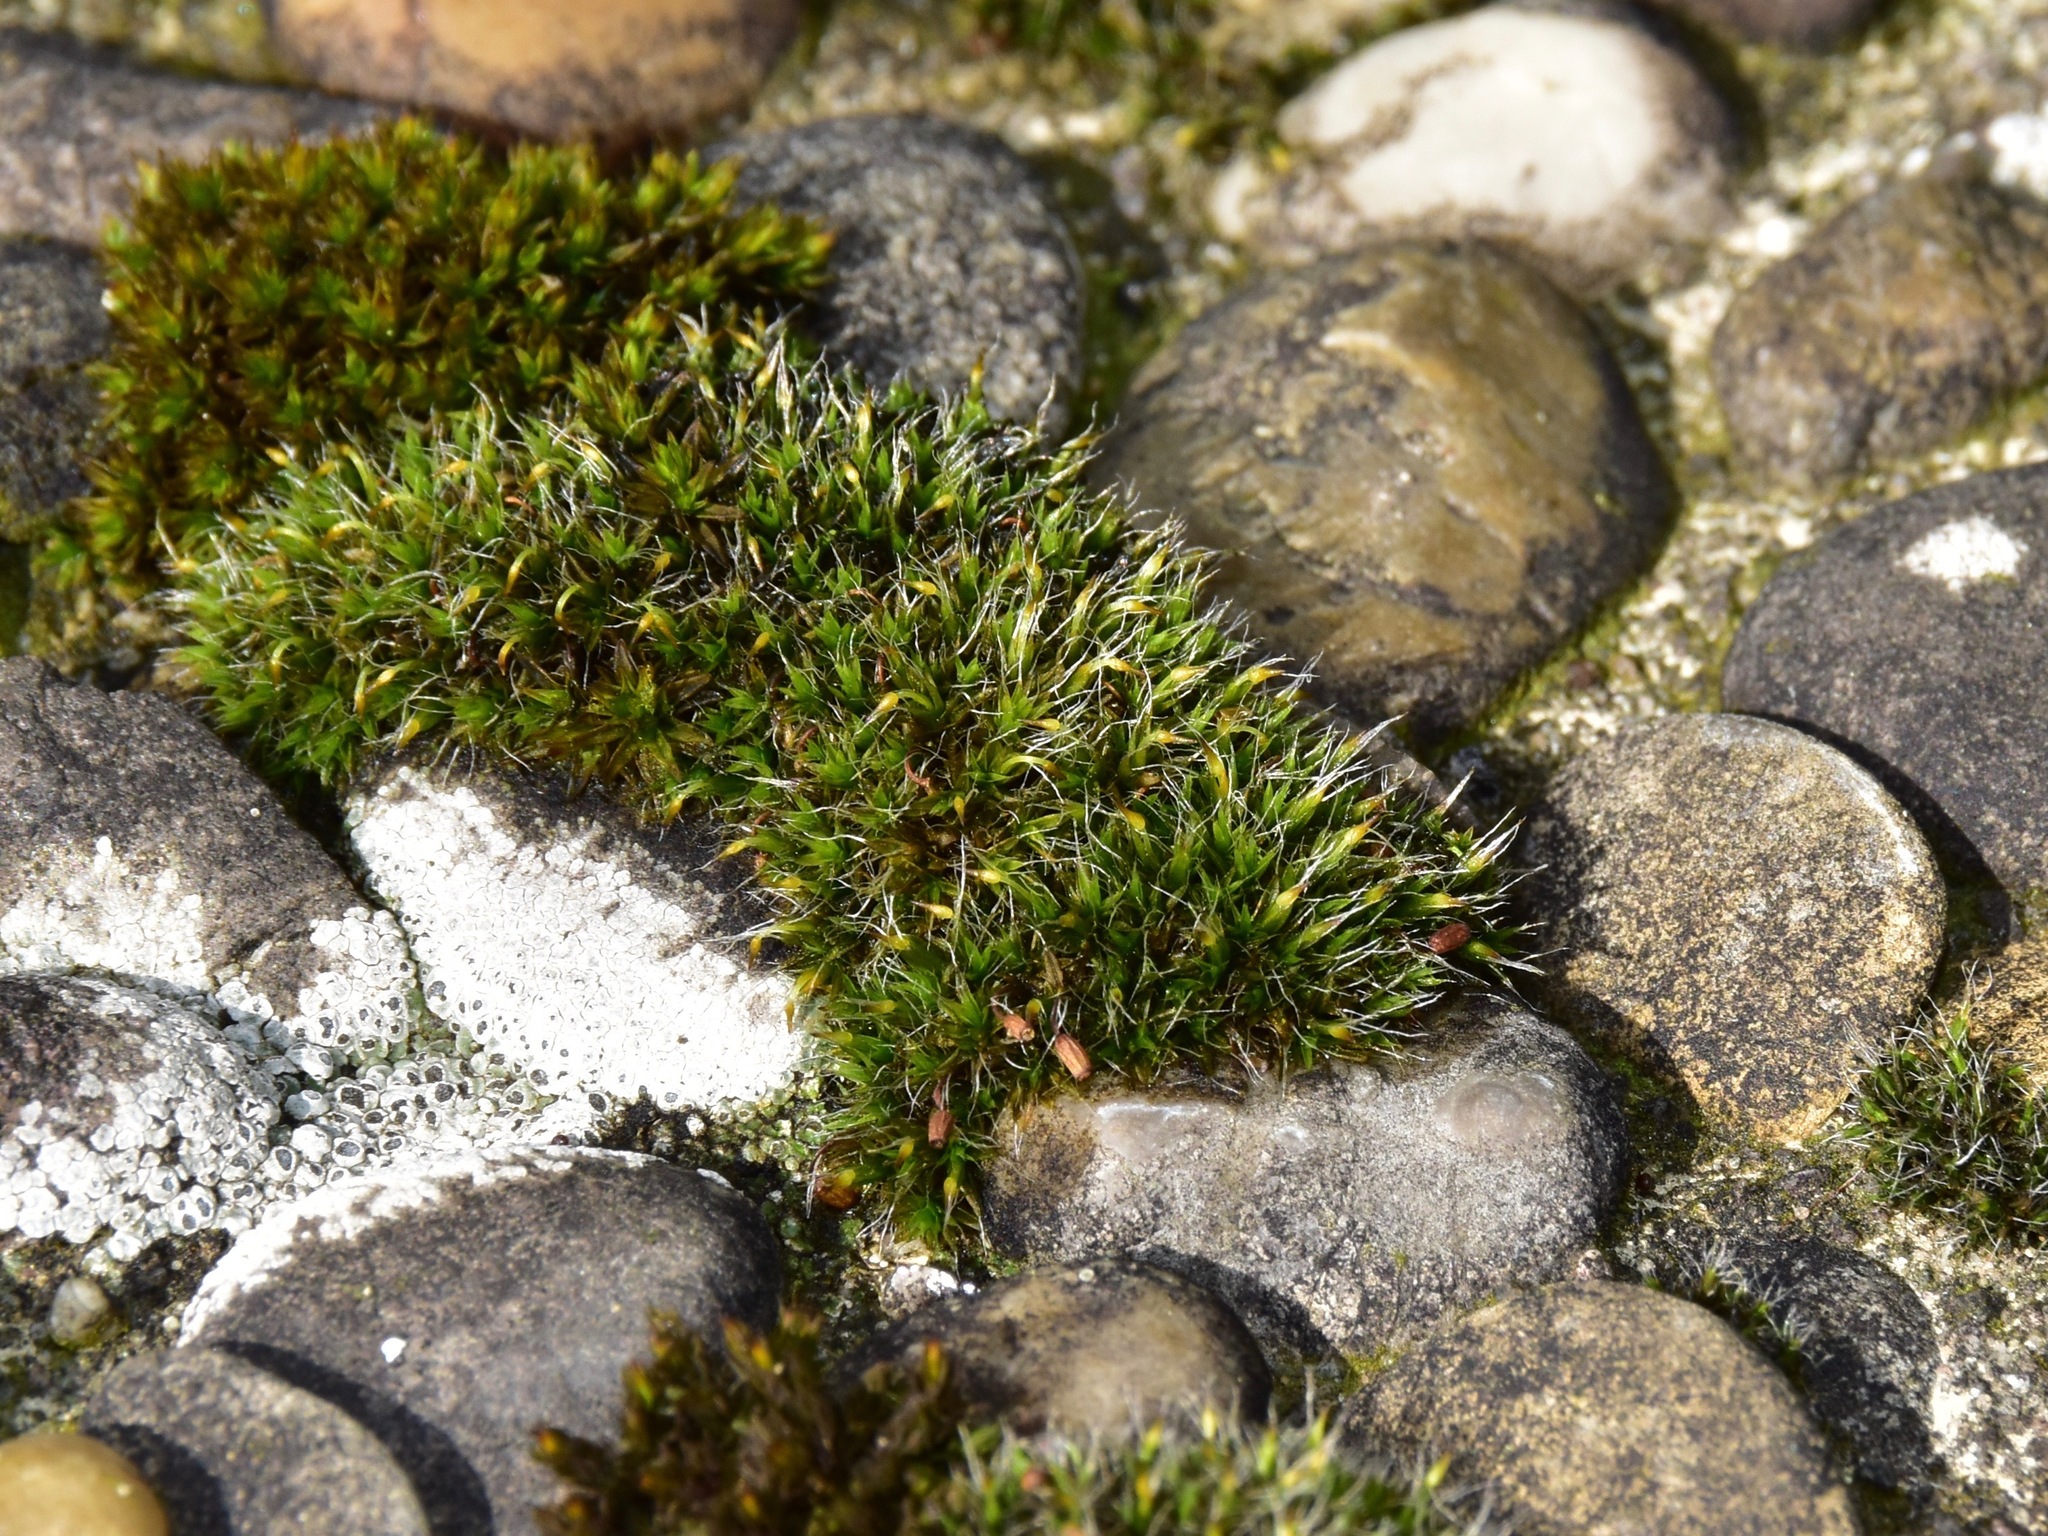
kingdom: Plantae
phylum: Bryophyta
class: Bryopsida
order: Grimmiales
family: Grimmiaceae
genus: Grimmia
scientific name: Grimmia pulvinata
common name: Grey-cushioned grimmia
